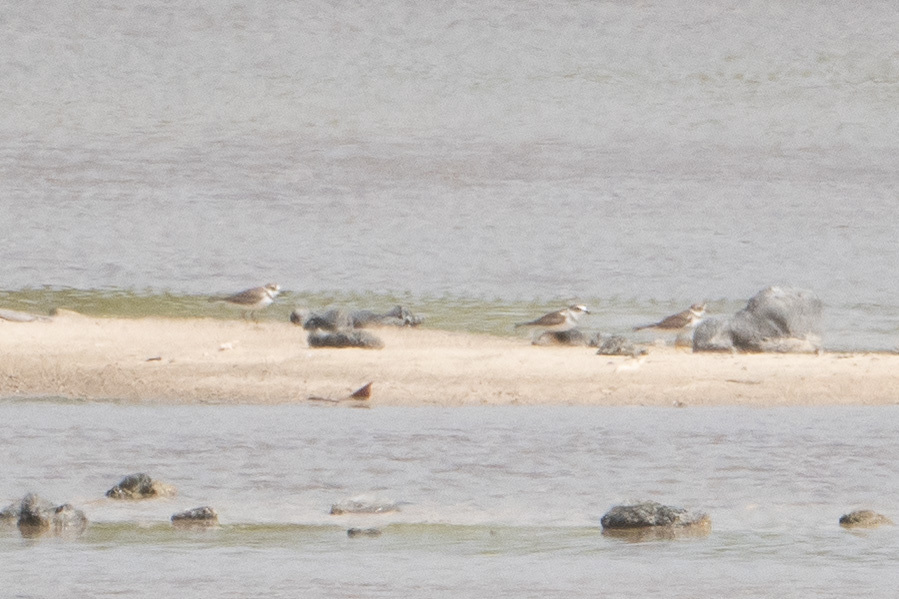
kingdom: Animalia
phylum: Chordata
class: Aves
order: Charadriiformes
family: Charadriidae
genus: Charadrius
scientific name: Charadrius semipalmatus
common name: Semipalmated plover
